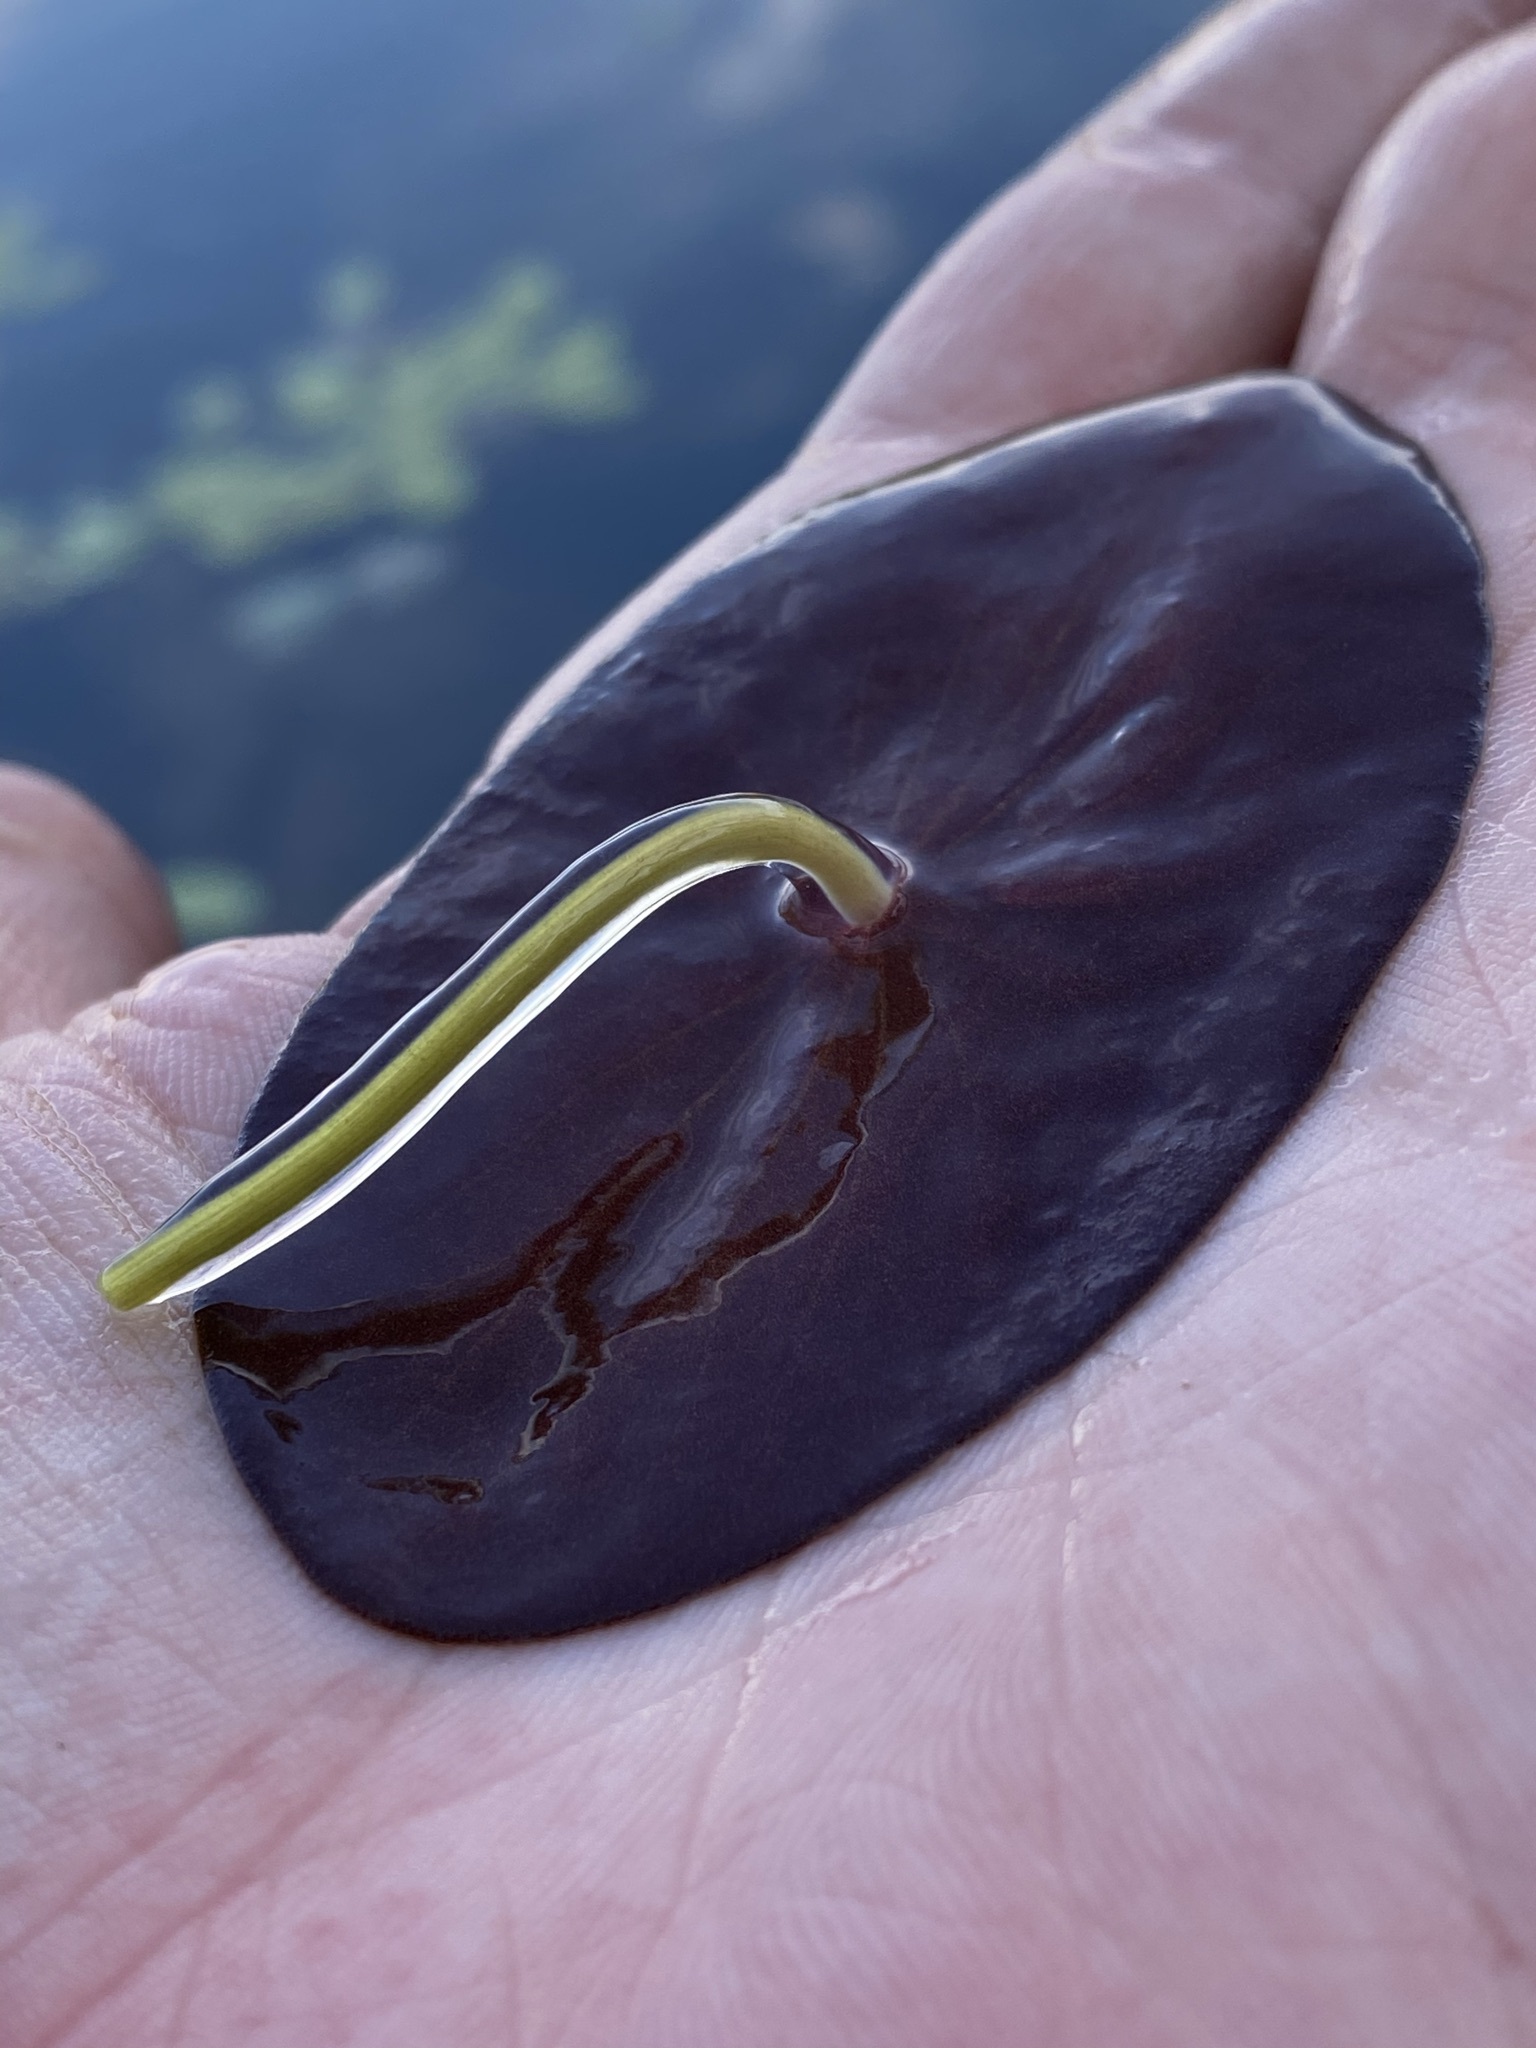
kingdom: Plantae
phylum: Tracheophyta
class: Magnoliopsida
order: Nymphaeales
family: Cabombaceae
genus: Brasenia
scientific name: Brasenia schreberi
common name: Water-shield
